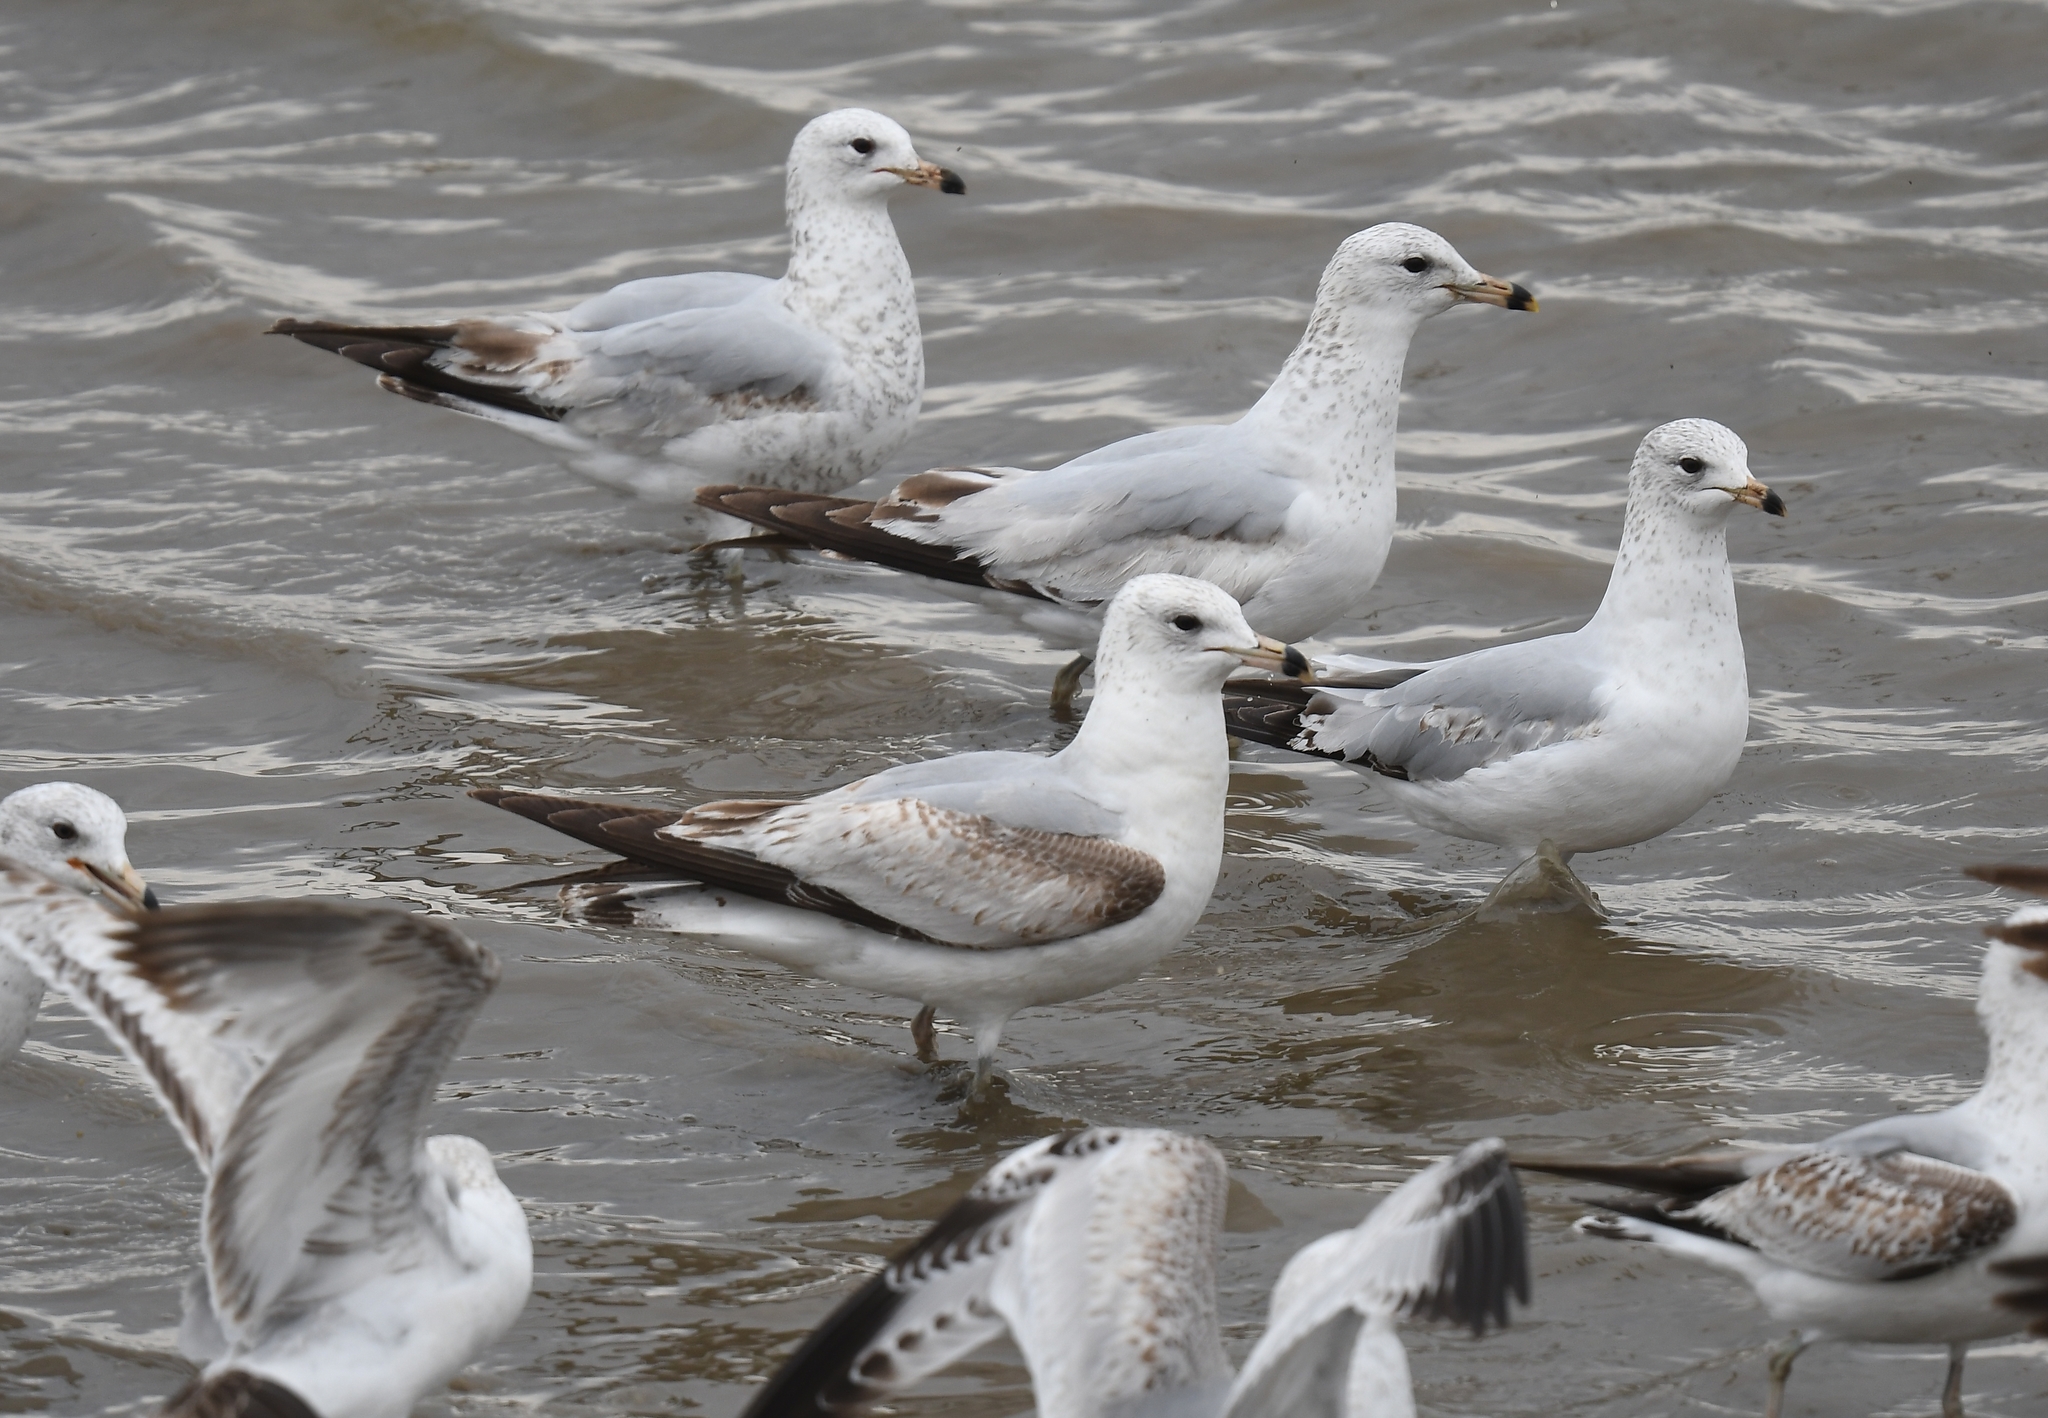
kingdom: Animalia
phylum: Chordata
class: Aves
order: Charadriiformes
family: Laridae
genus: Larus
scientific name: Larus delawarensis
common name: Ring-billed gull
